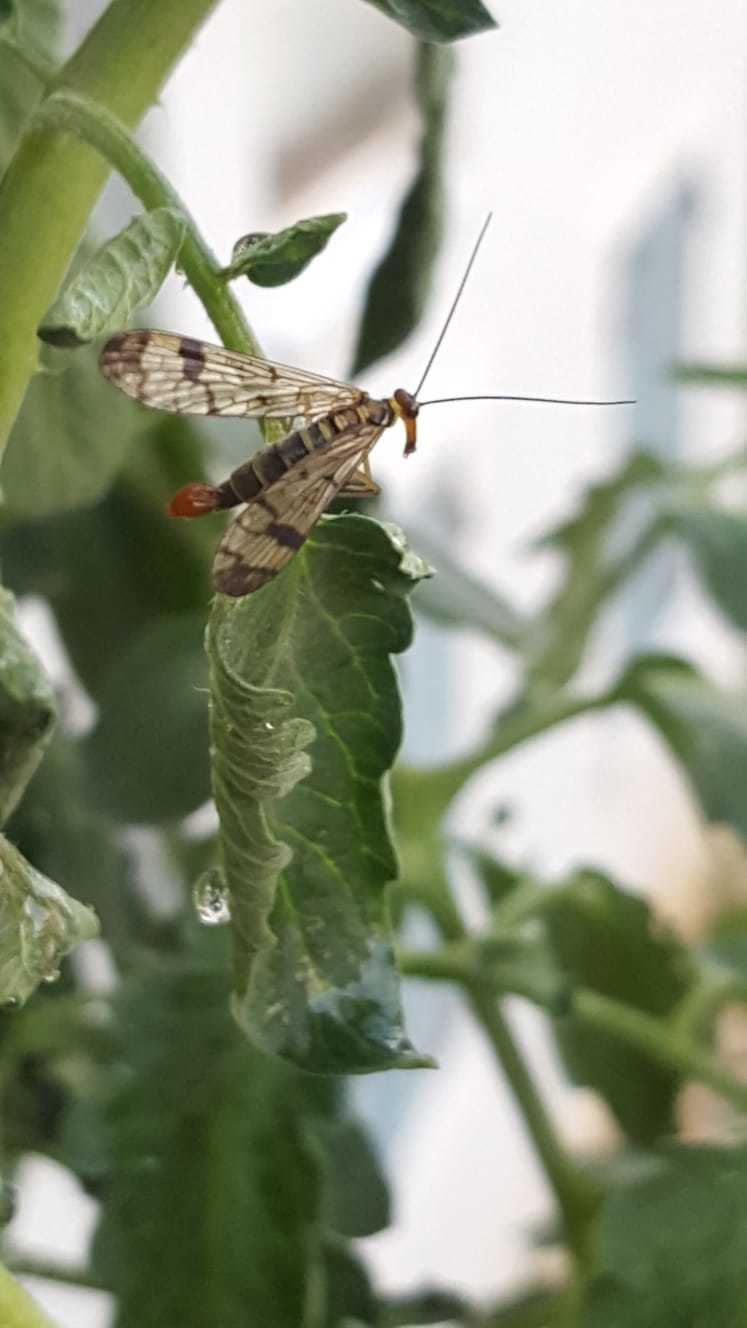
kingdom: Animalia
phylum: Arthropoda
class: Insecta
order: Mecoptera
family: Panorpidae
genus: Panorpa
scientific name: Panorpa cognata
